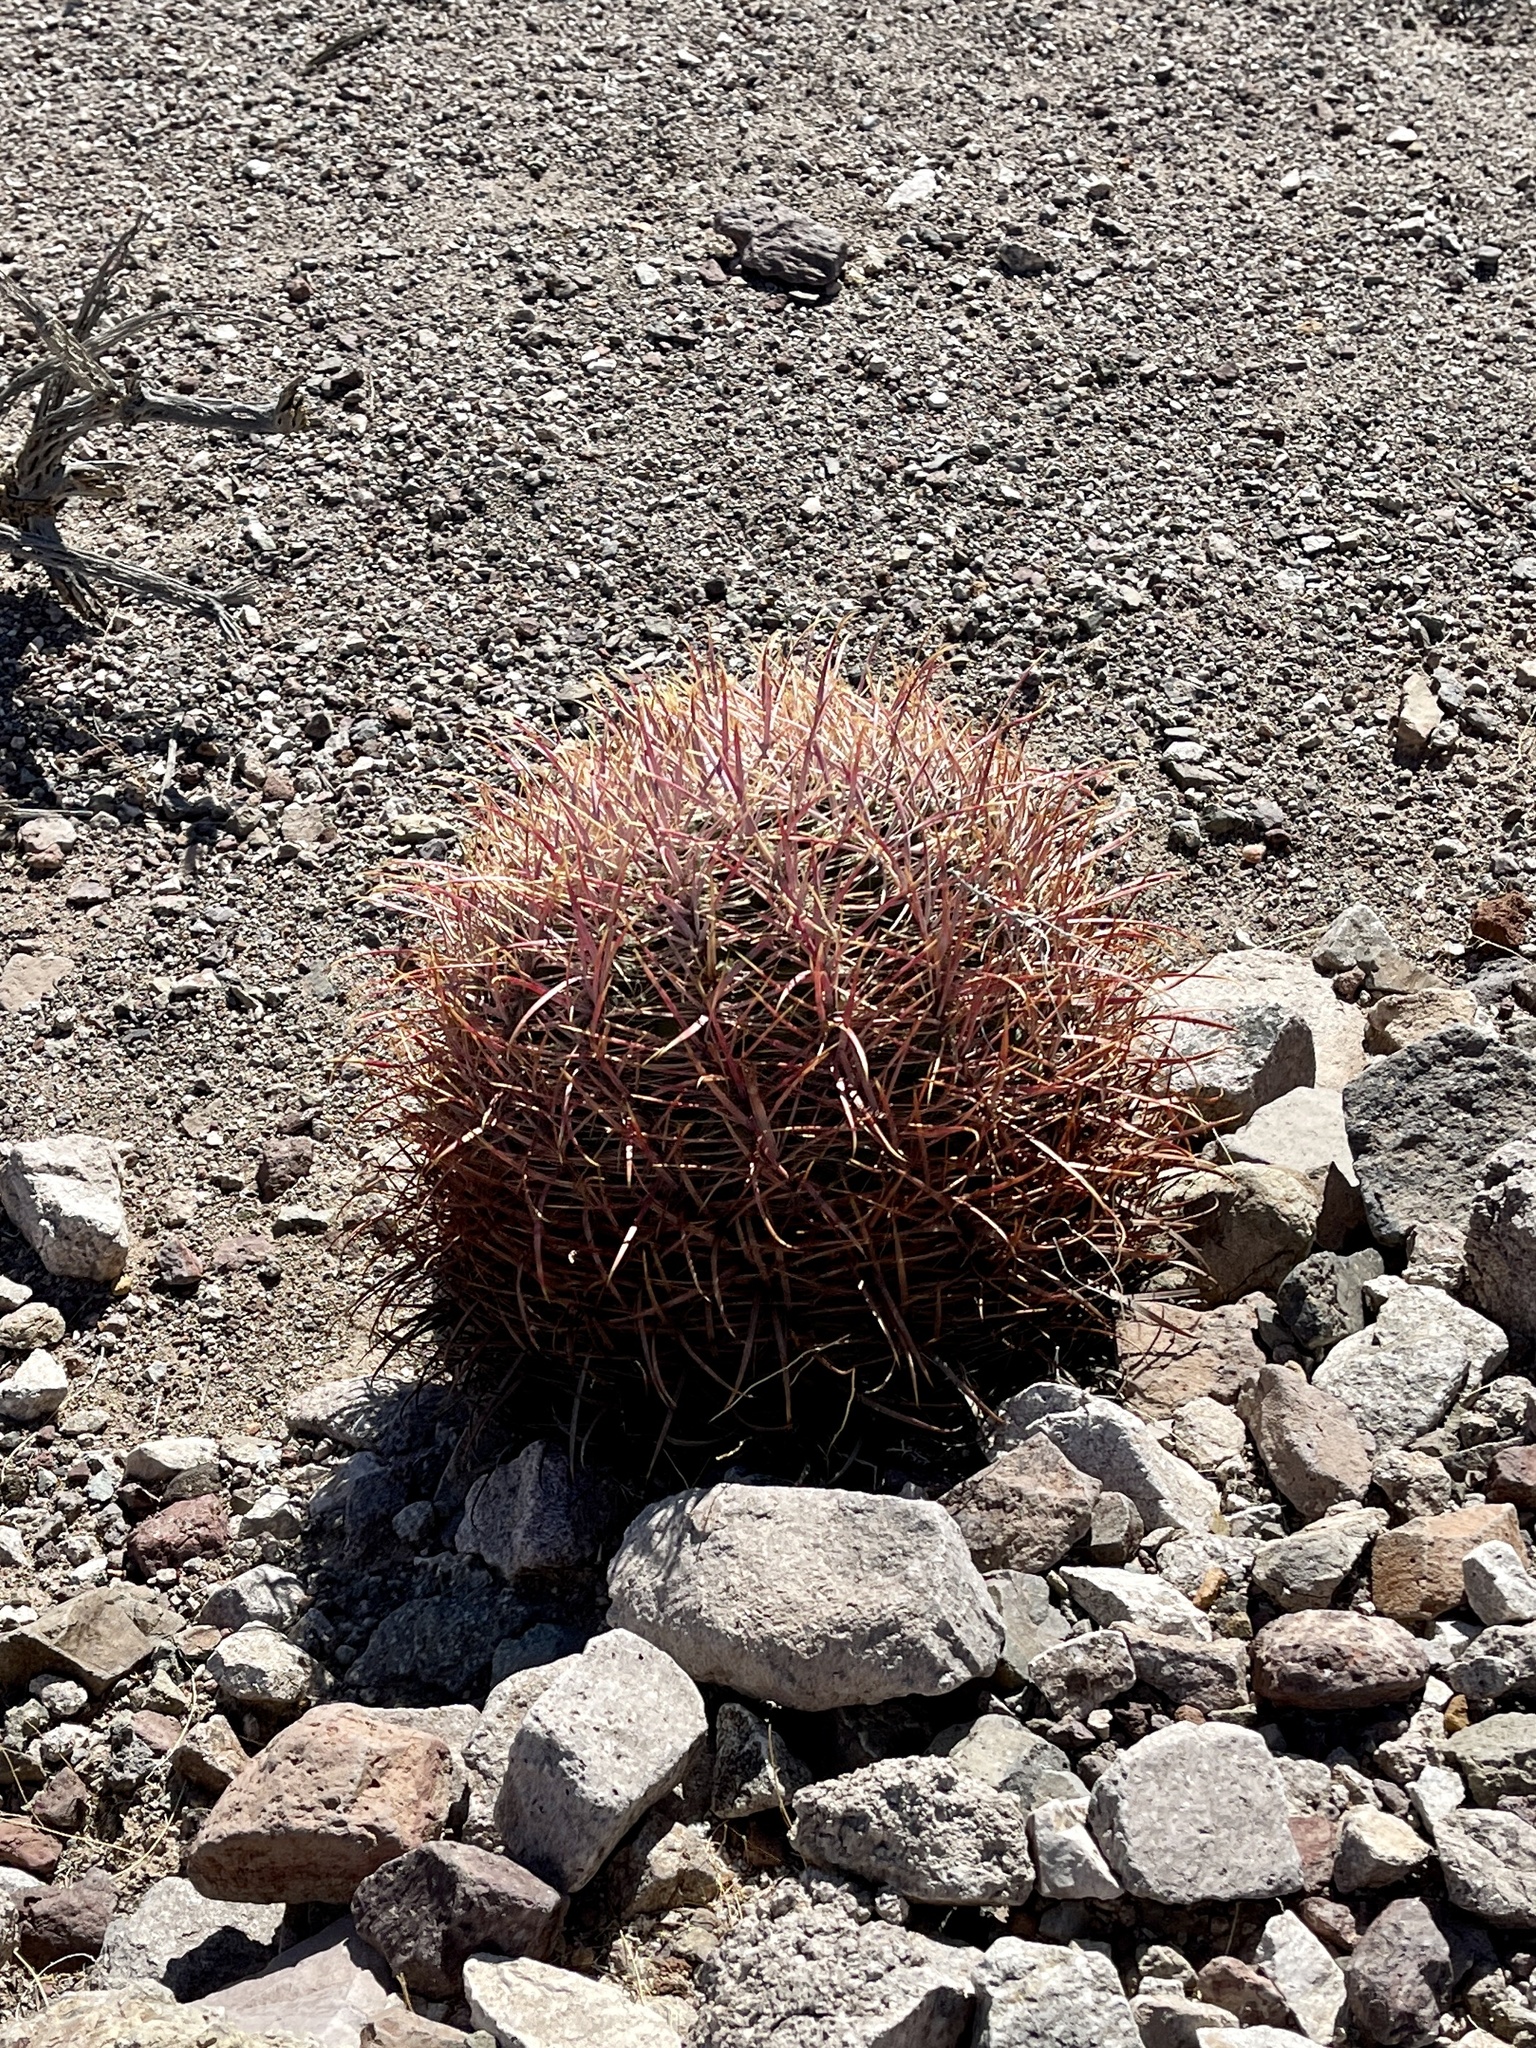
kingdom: Plantae
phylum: Tracheophyta
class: Magnoliopsida
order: Caryophyllales
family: Cactaceae
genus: Ferocactus
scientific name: Ferocactus cylindraceus
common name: California barrel cactus
